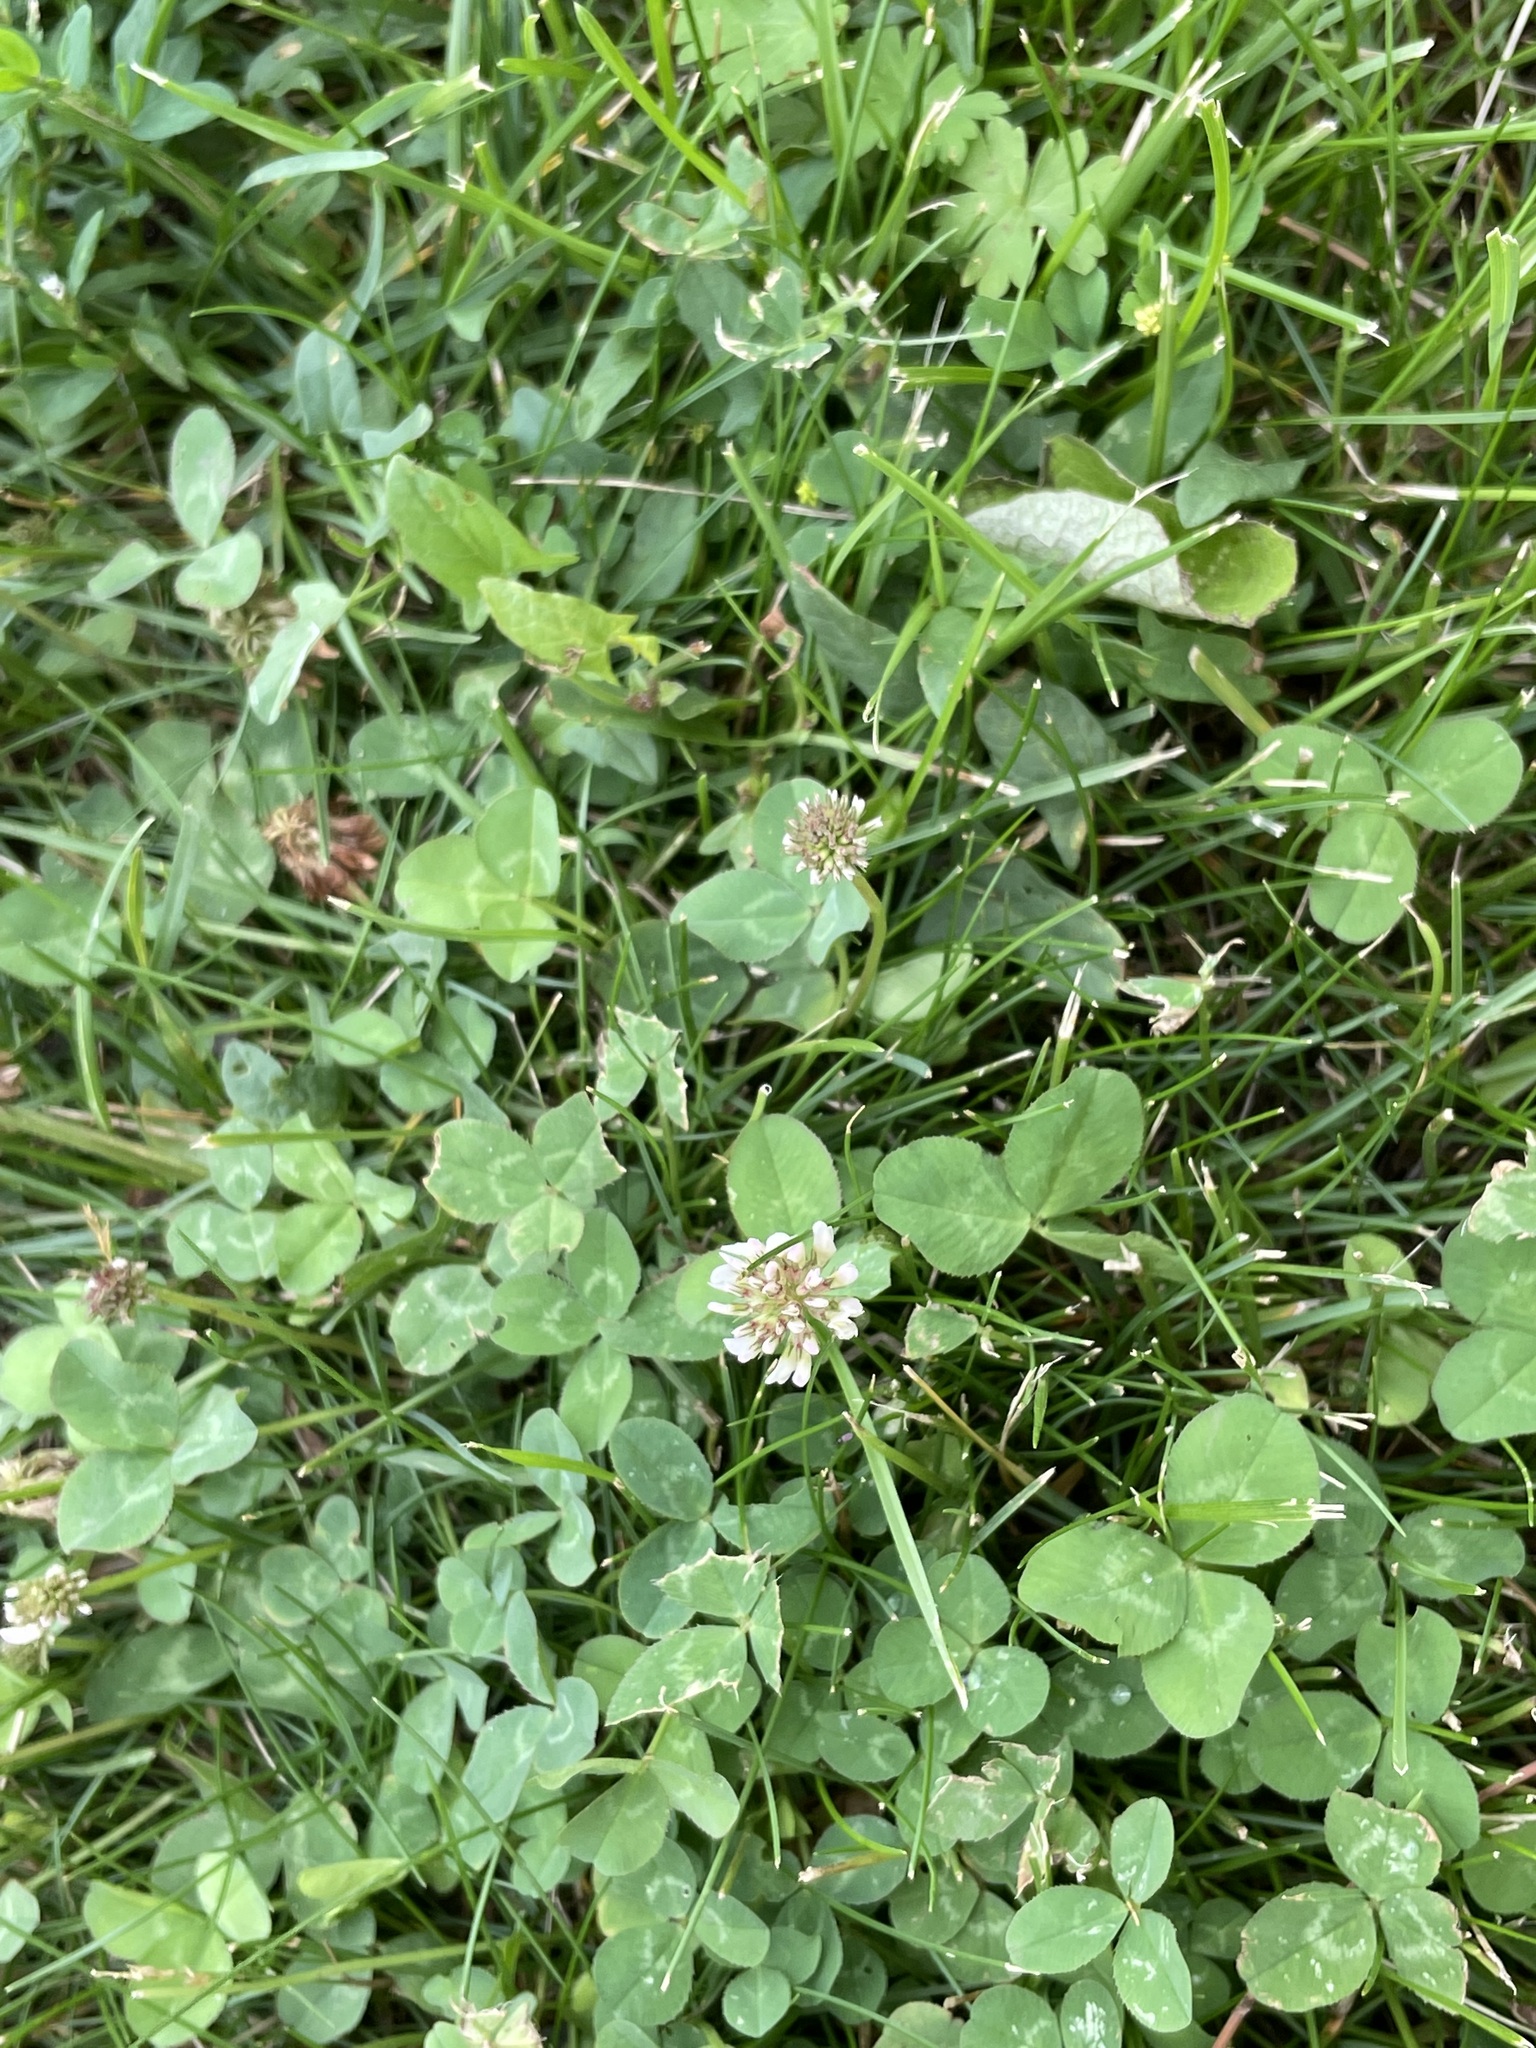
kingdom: Plantae
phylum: Tracheophyta
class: Magnoliopsida
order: Fabales
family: Fabaceae
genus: Trifolium
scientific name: Trifolium repens
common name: White clover
